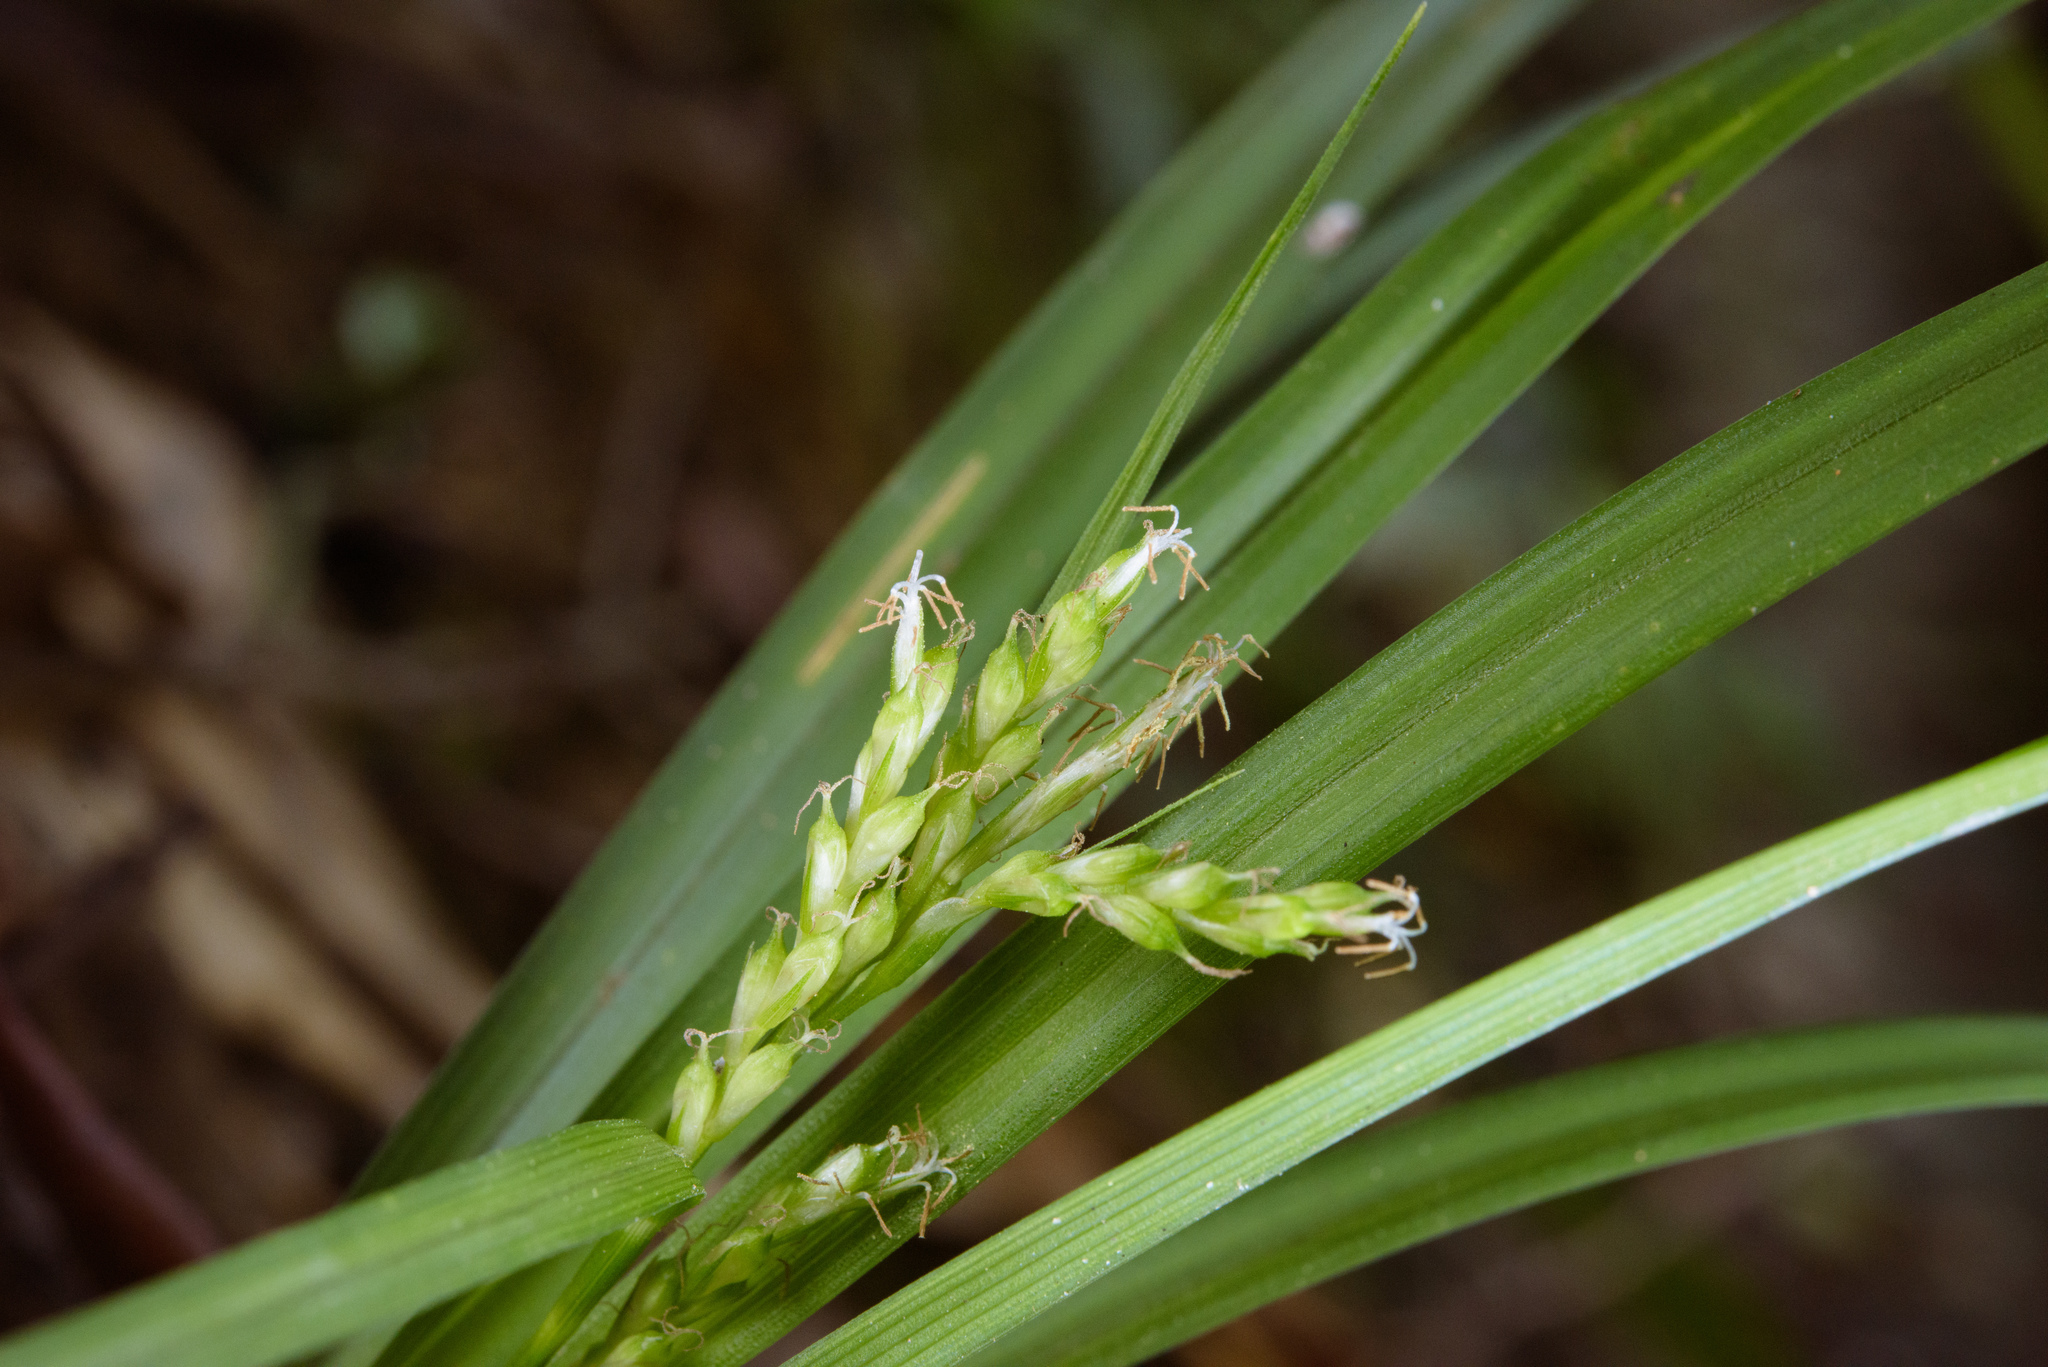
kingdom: Plantae
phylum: Tracheophyta
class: Liliopsida
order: Poales
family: Cyperaceae
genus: Carex
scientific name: Carex breviscapa
